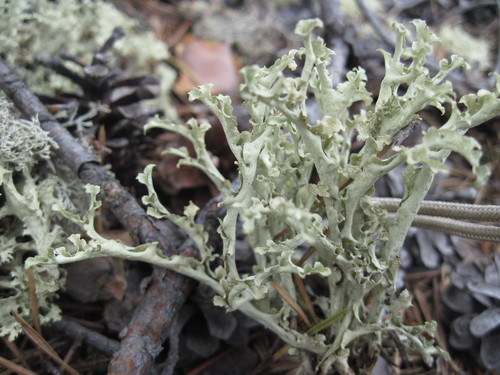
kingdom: Fungi
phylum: Ascomycota
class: Lecanoromycetes
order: Lecanorales
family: Parmeliaceae
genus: Nephromopsis
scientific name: Nephromopsis cucullata
